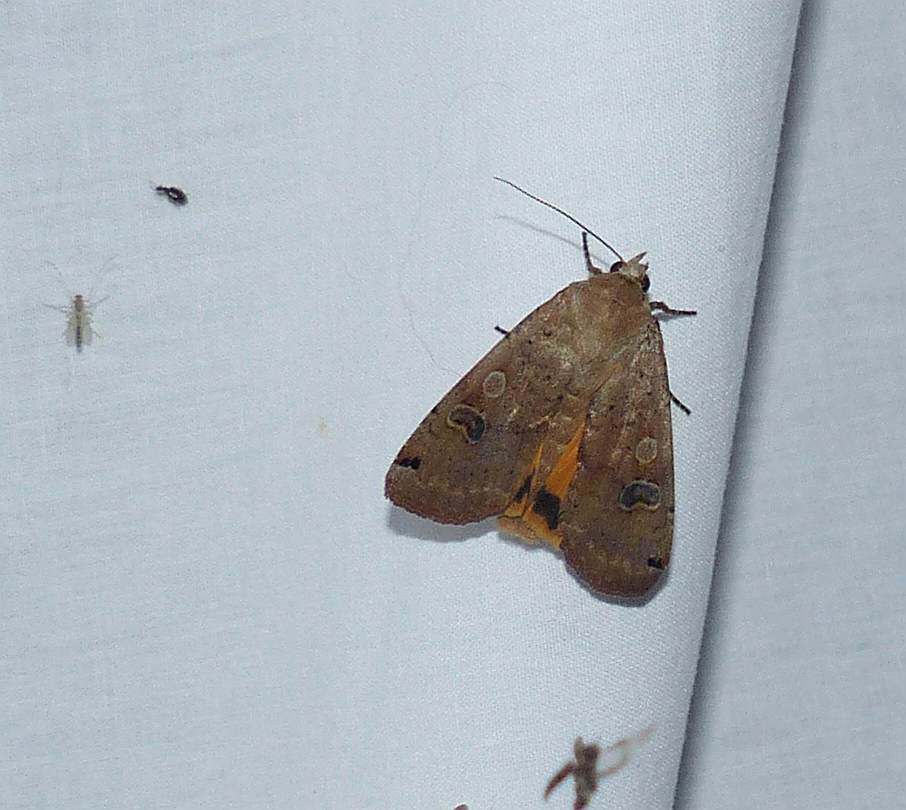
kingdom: Animalia
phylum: Arthropoda
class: Insecta
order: Lepidoptera
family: Noctuidae
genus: Noctua
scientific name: Noctua pronuba
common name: Large yellow underwing
